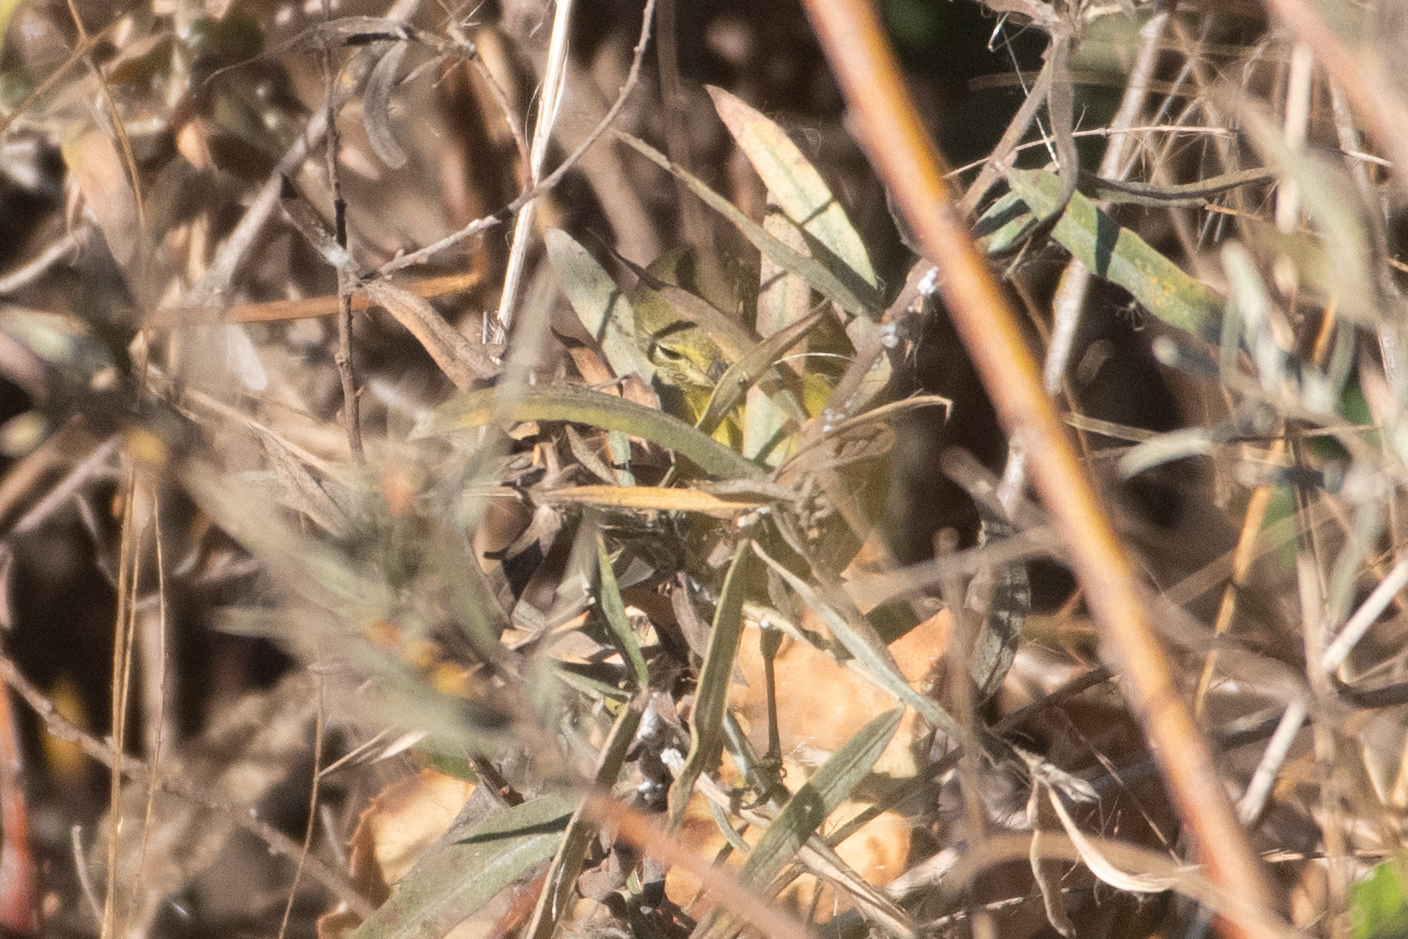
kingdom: Animalia
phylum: Chordata
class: Aves
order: Passeriformes
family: Parulidae
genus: Leiothlypis
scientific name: Leiothlypis celata
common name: Orange-crowned warbler
